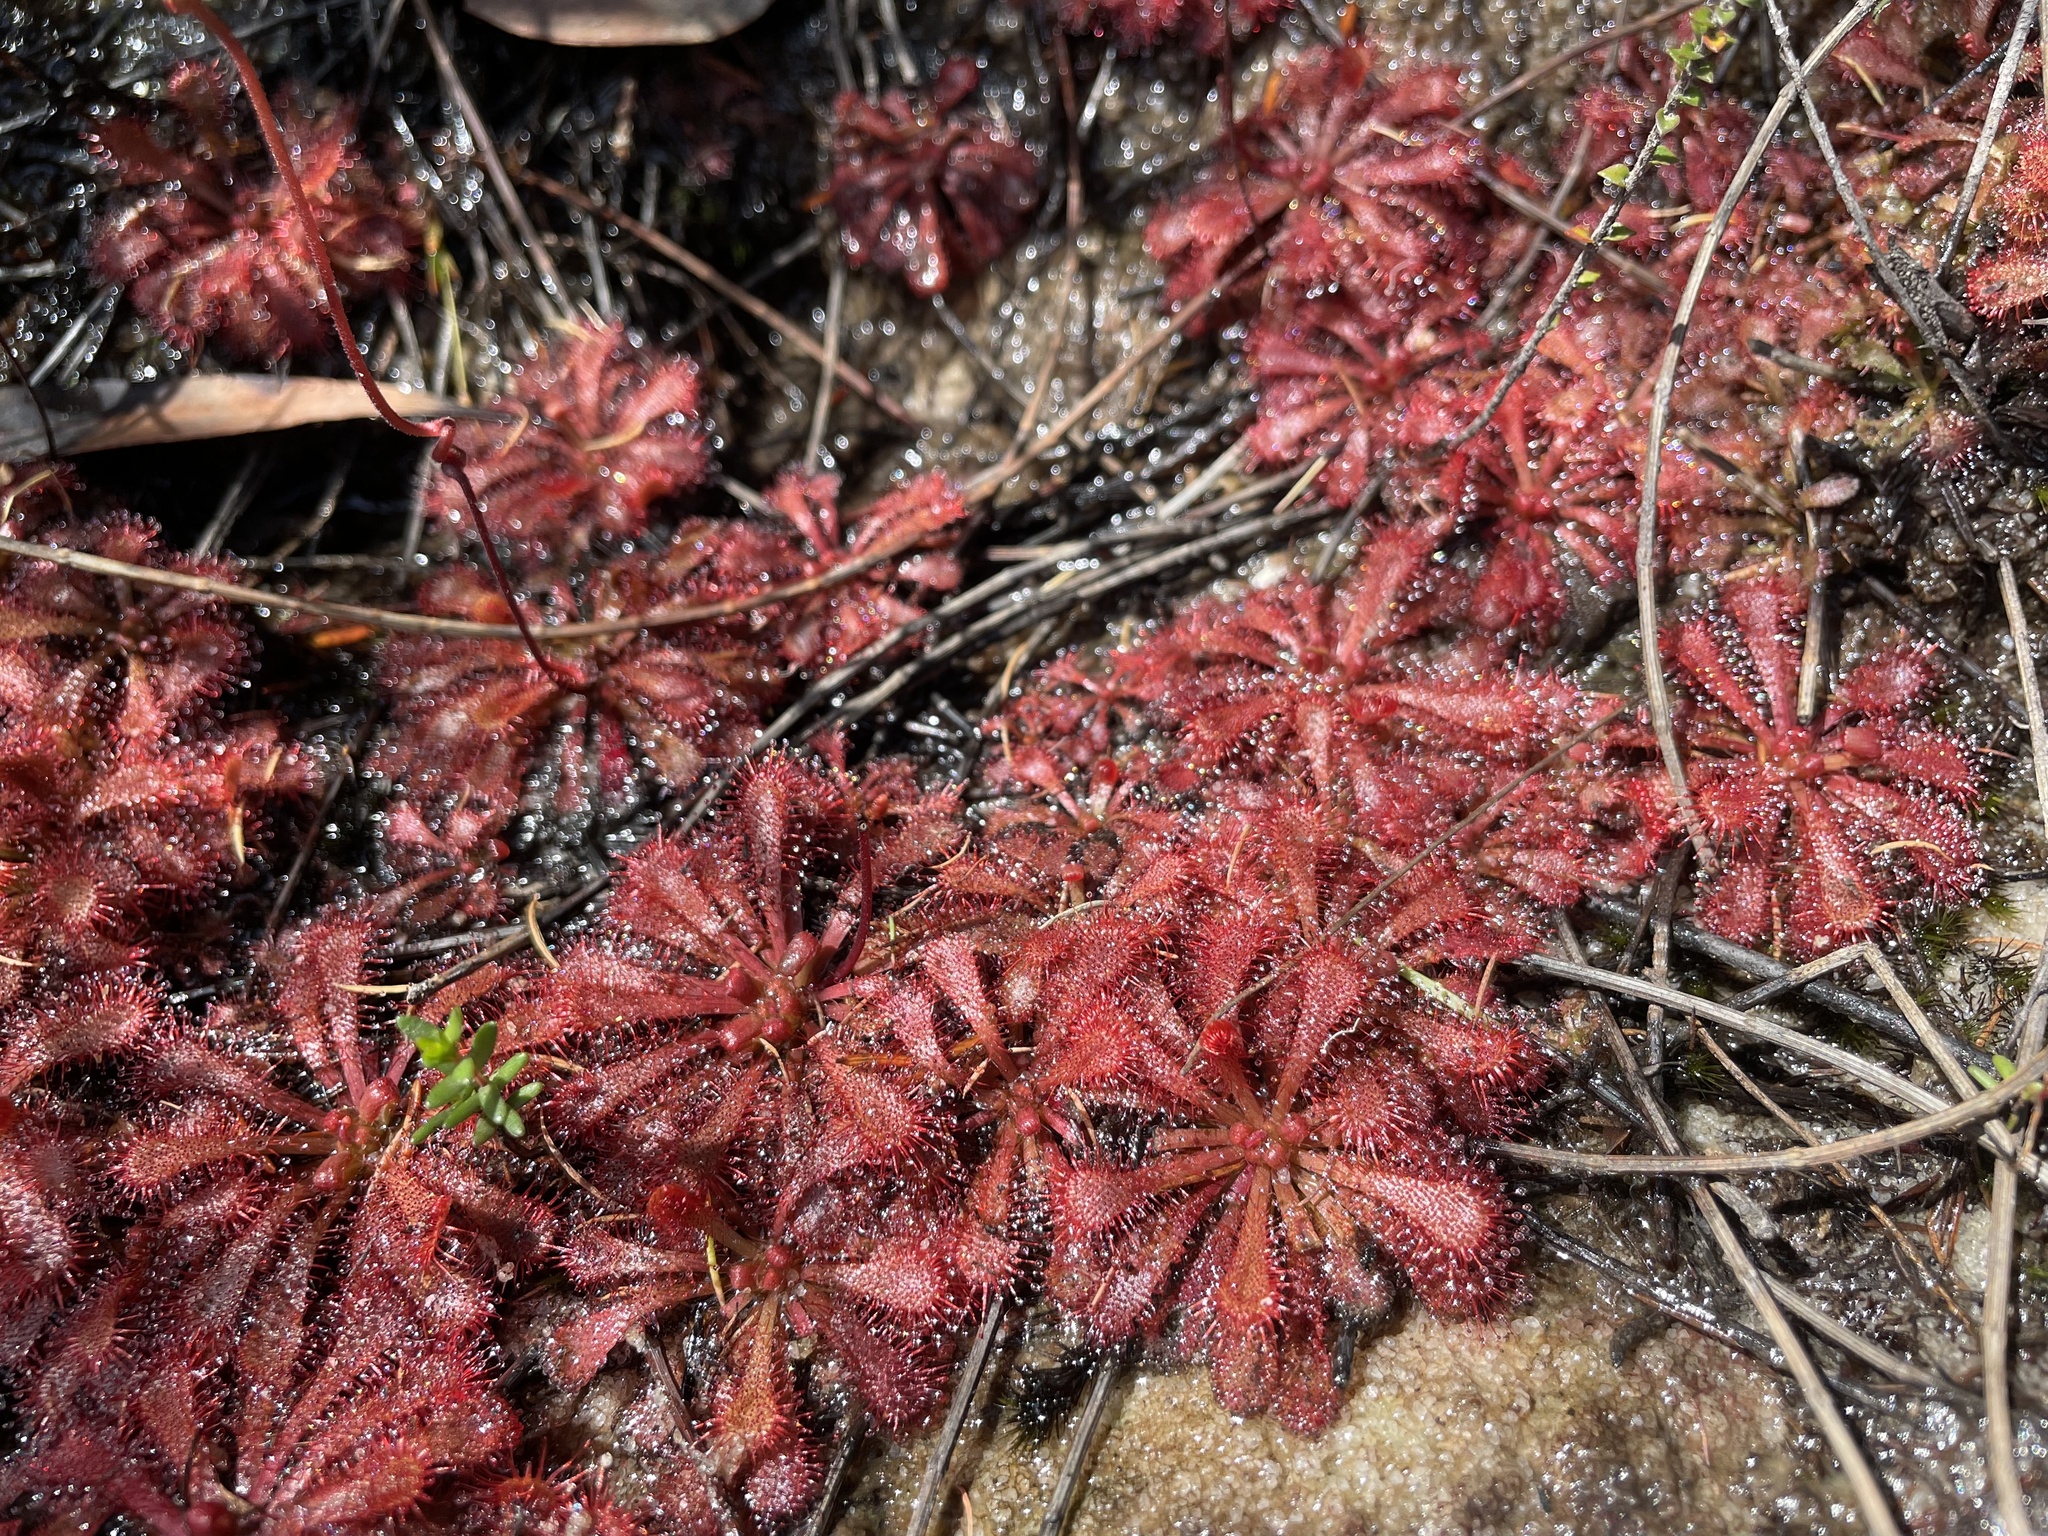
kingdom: Plantae
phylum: Tracheophyta
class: Magnoliopsida
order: Caryophyllales
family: Droseraceae
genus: Drosera
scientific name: Drosera spatulata
